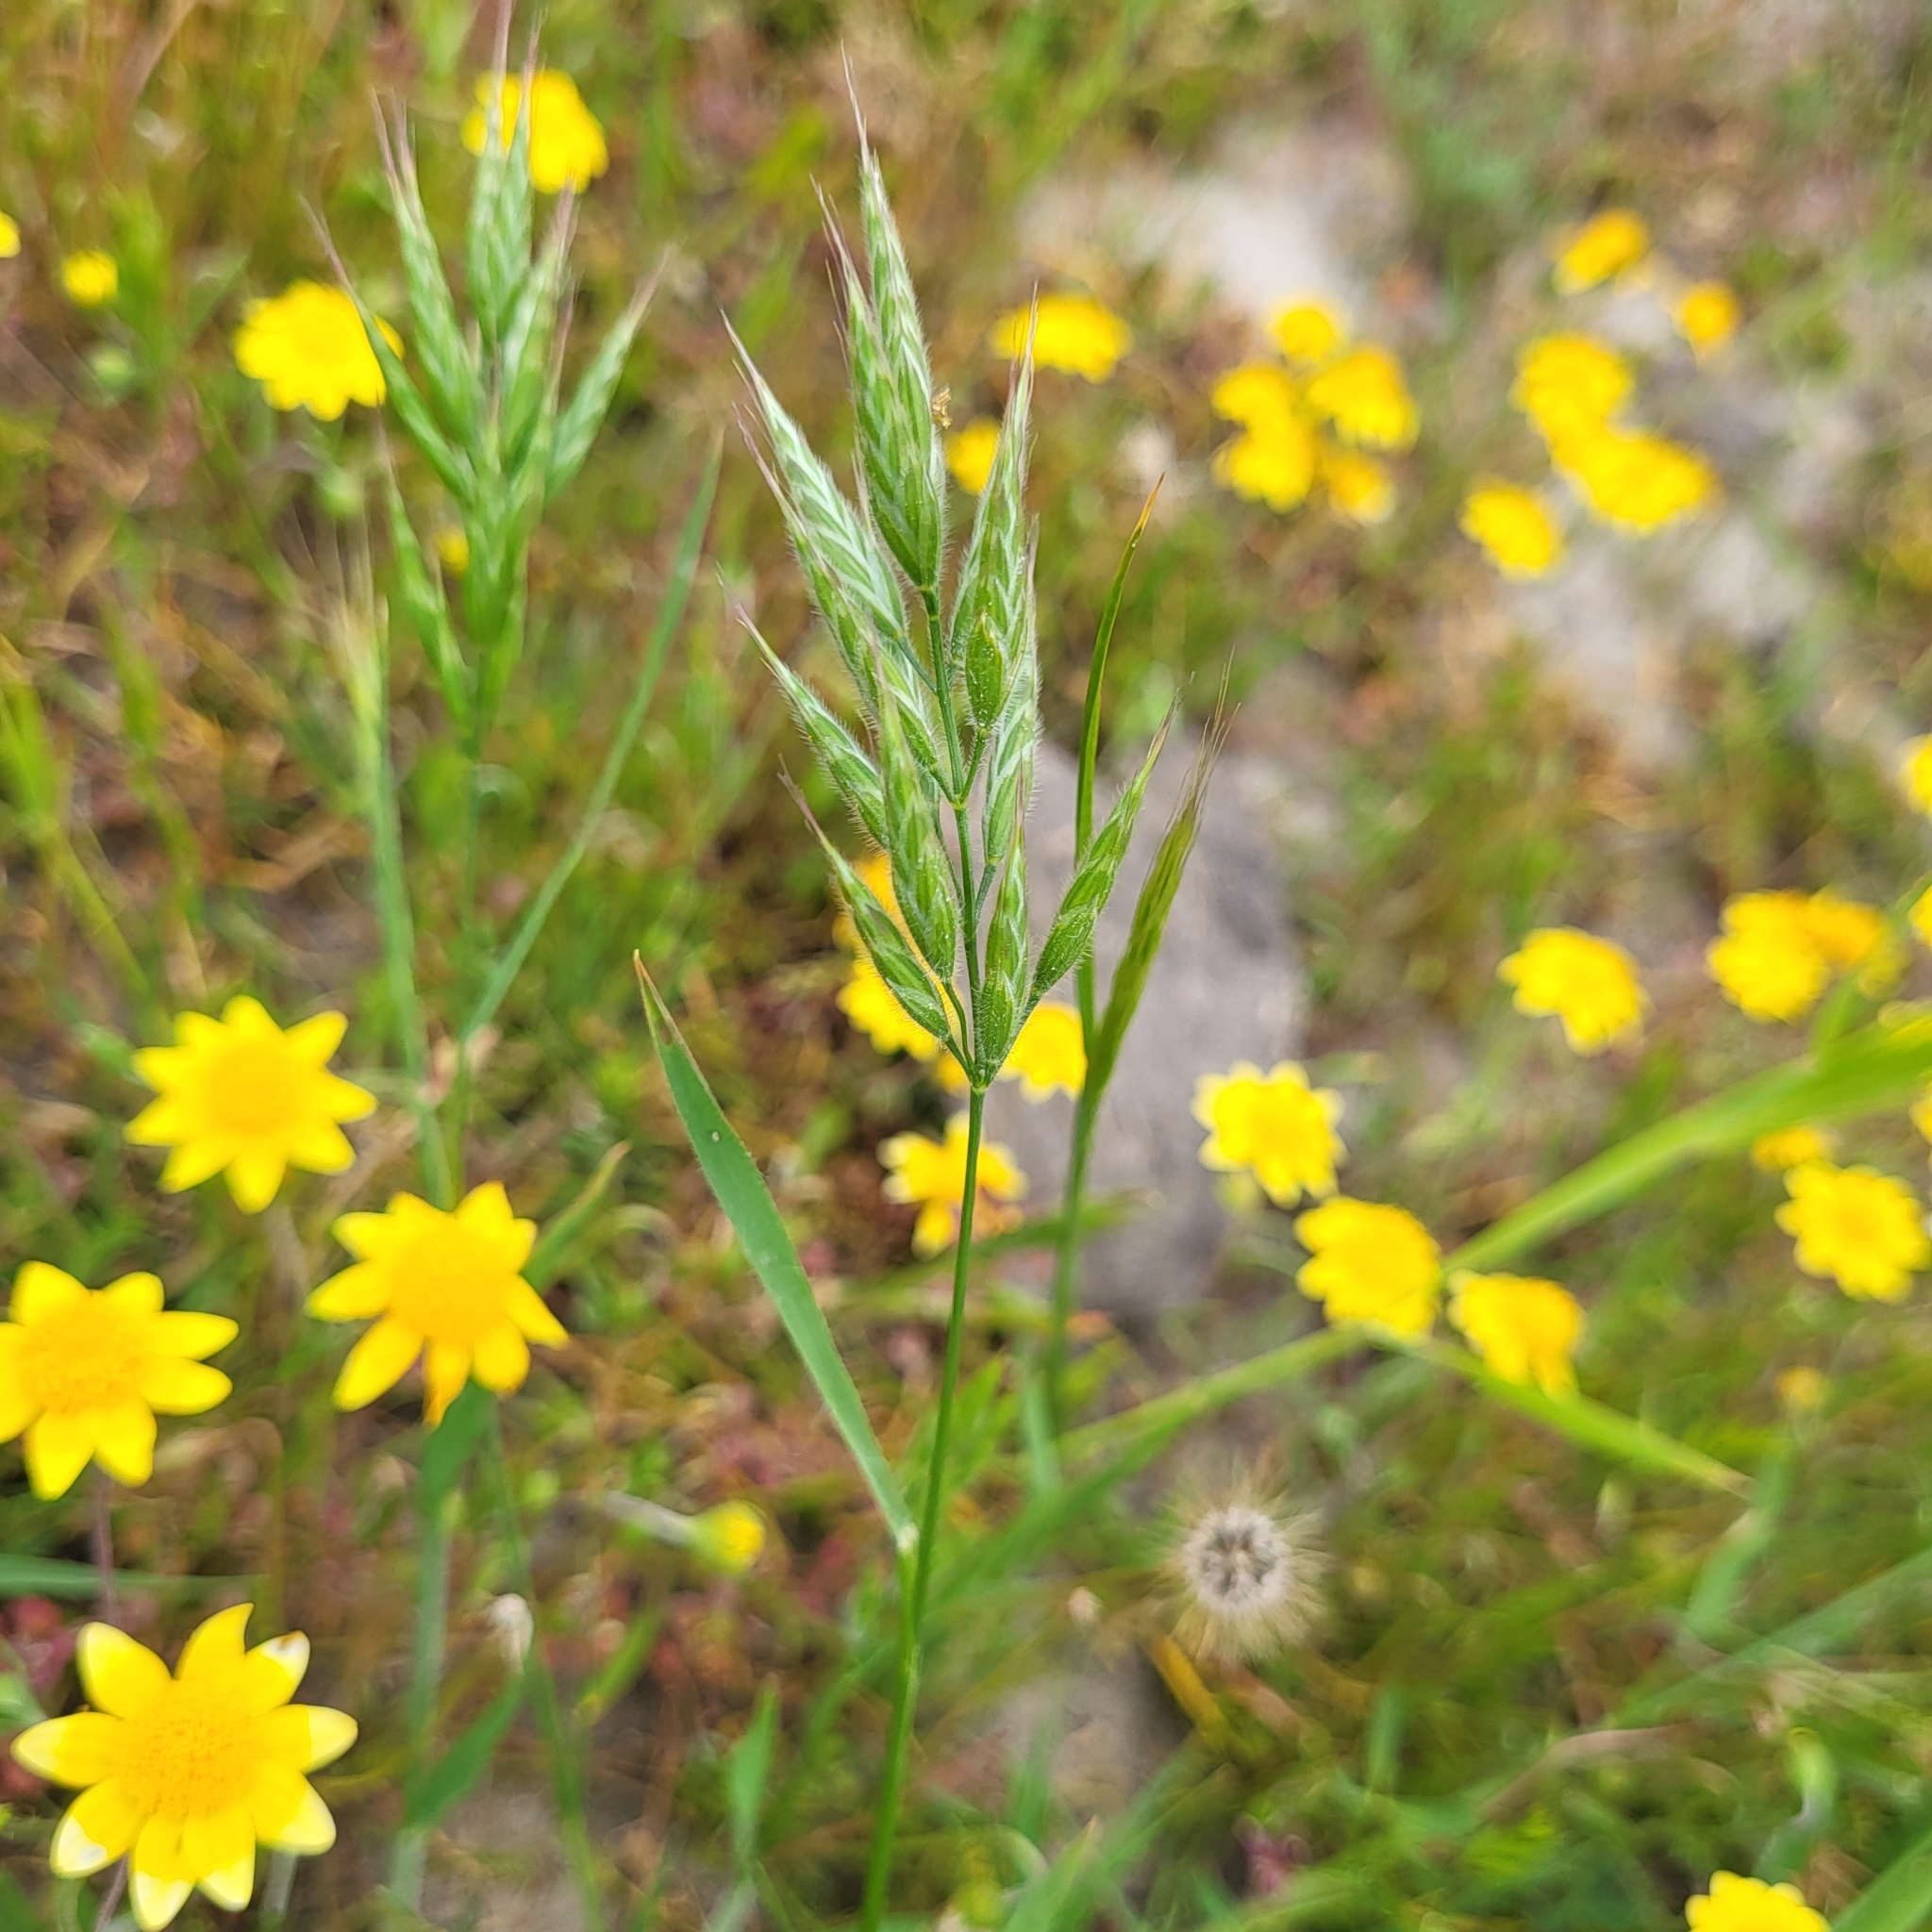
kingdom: Plantae
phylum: Tracheophyta
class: Liliopsida
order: Poales
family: Poaceae
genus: Bromus
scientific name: Bromus hordeaceus
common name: Soft brome
